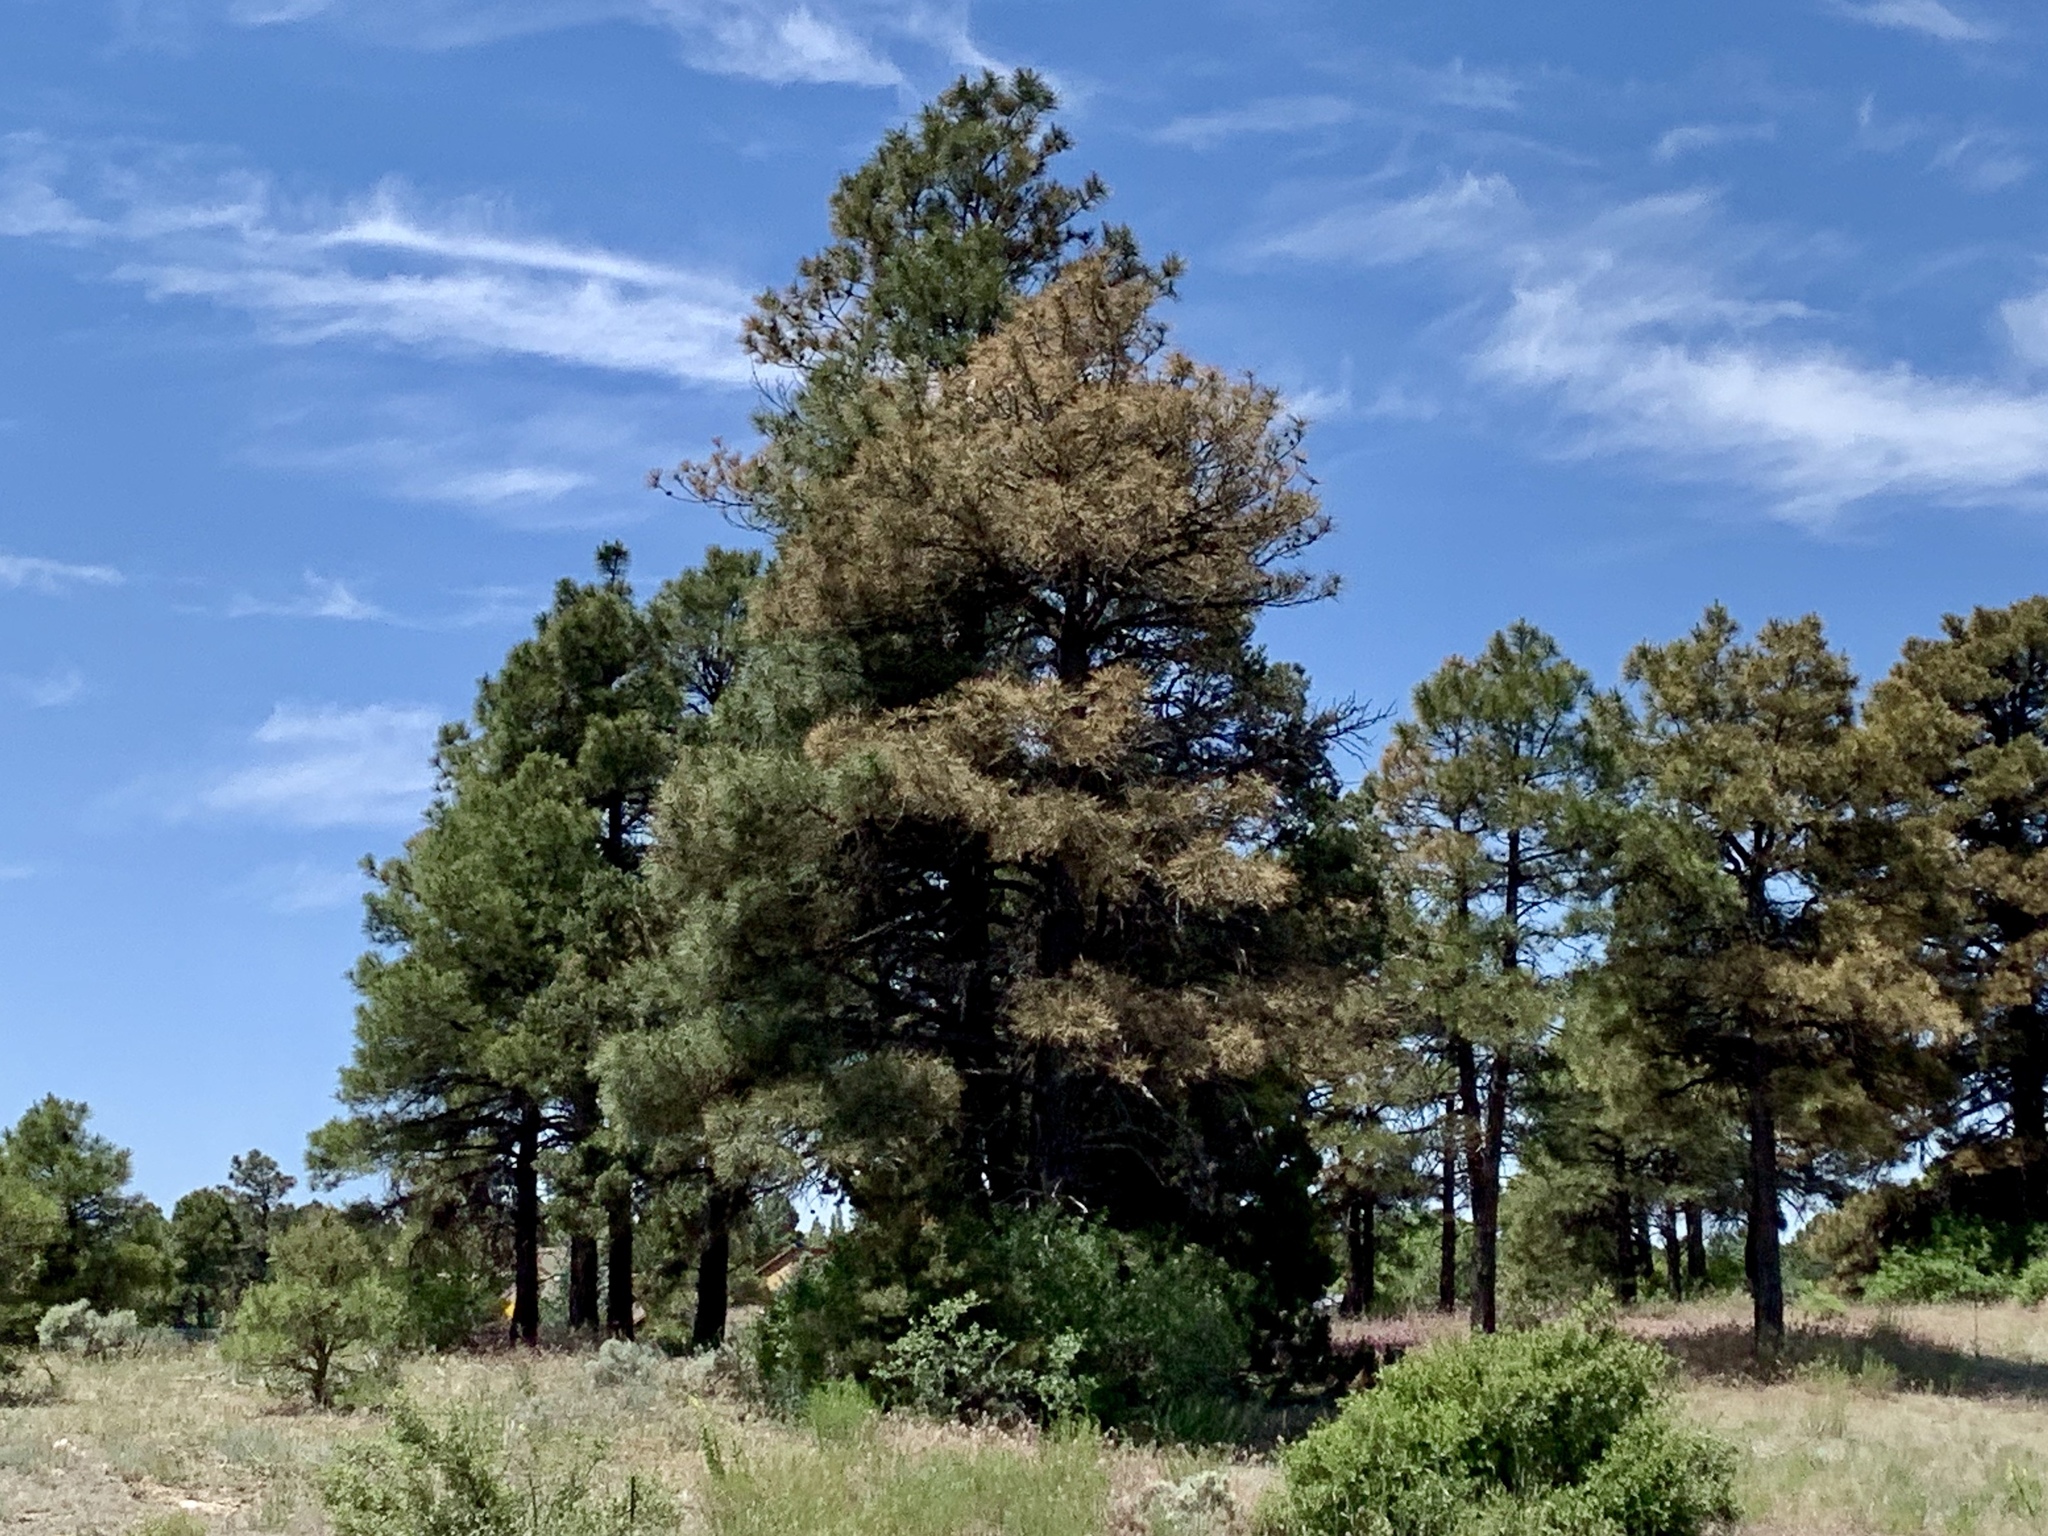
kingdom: Plantae
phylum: Tracheophyta
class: Pinopsida
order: Pinales
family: Pinaceae
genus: Pinus
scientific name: Pinus ponderosa
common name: Western yellow-pine
